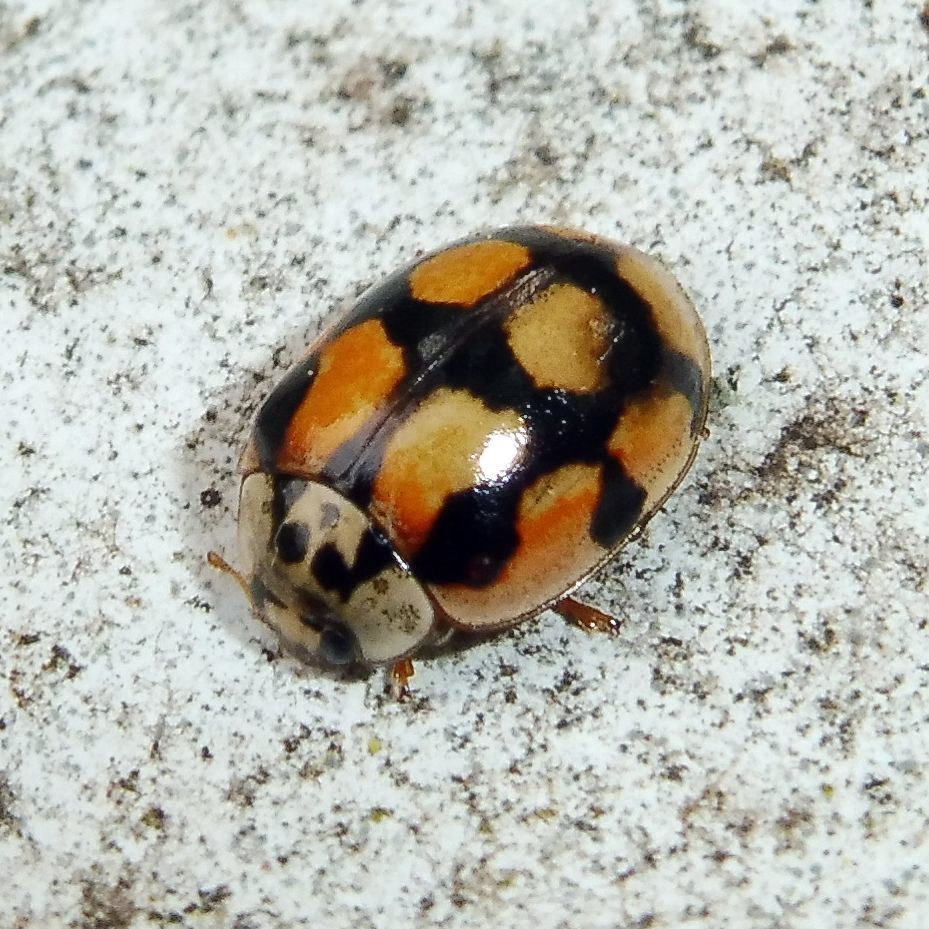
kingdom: Animalia
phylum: Arthropoda
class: Insecta
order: Coleoptera
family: Coccinellidae
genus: Adalia
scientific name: Adalia decempunctata
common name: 10-spot ladybird
